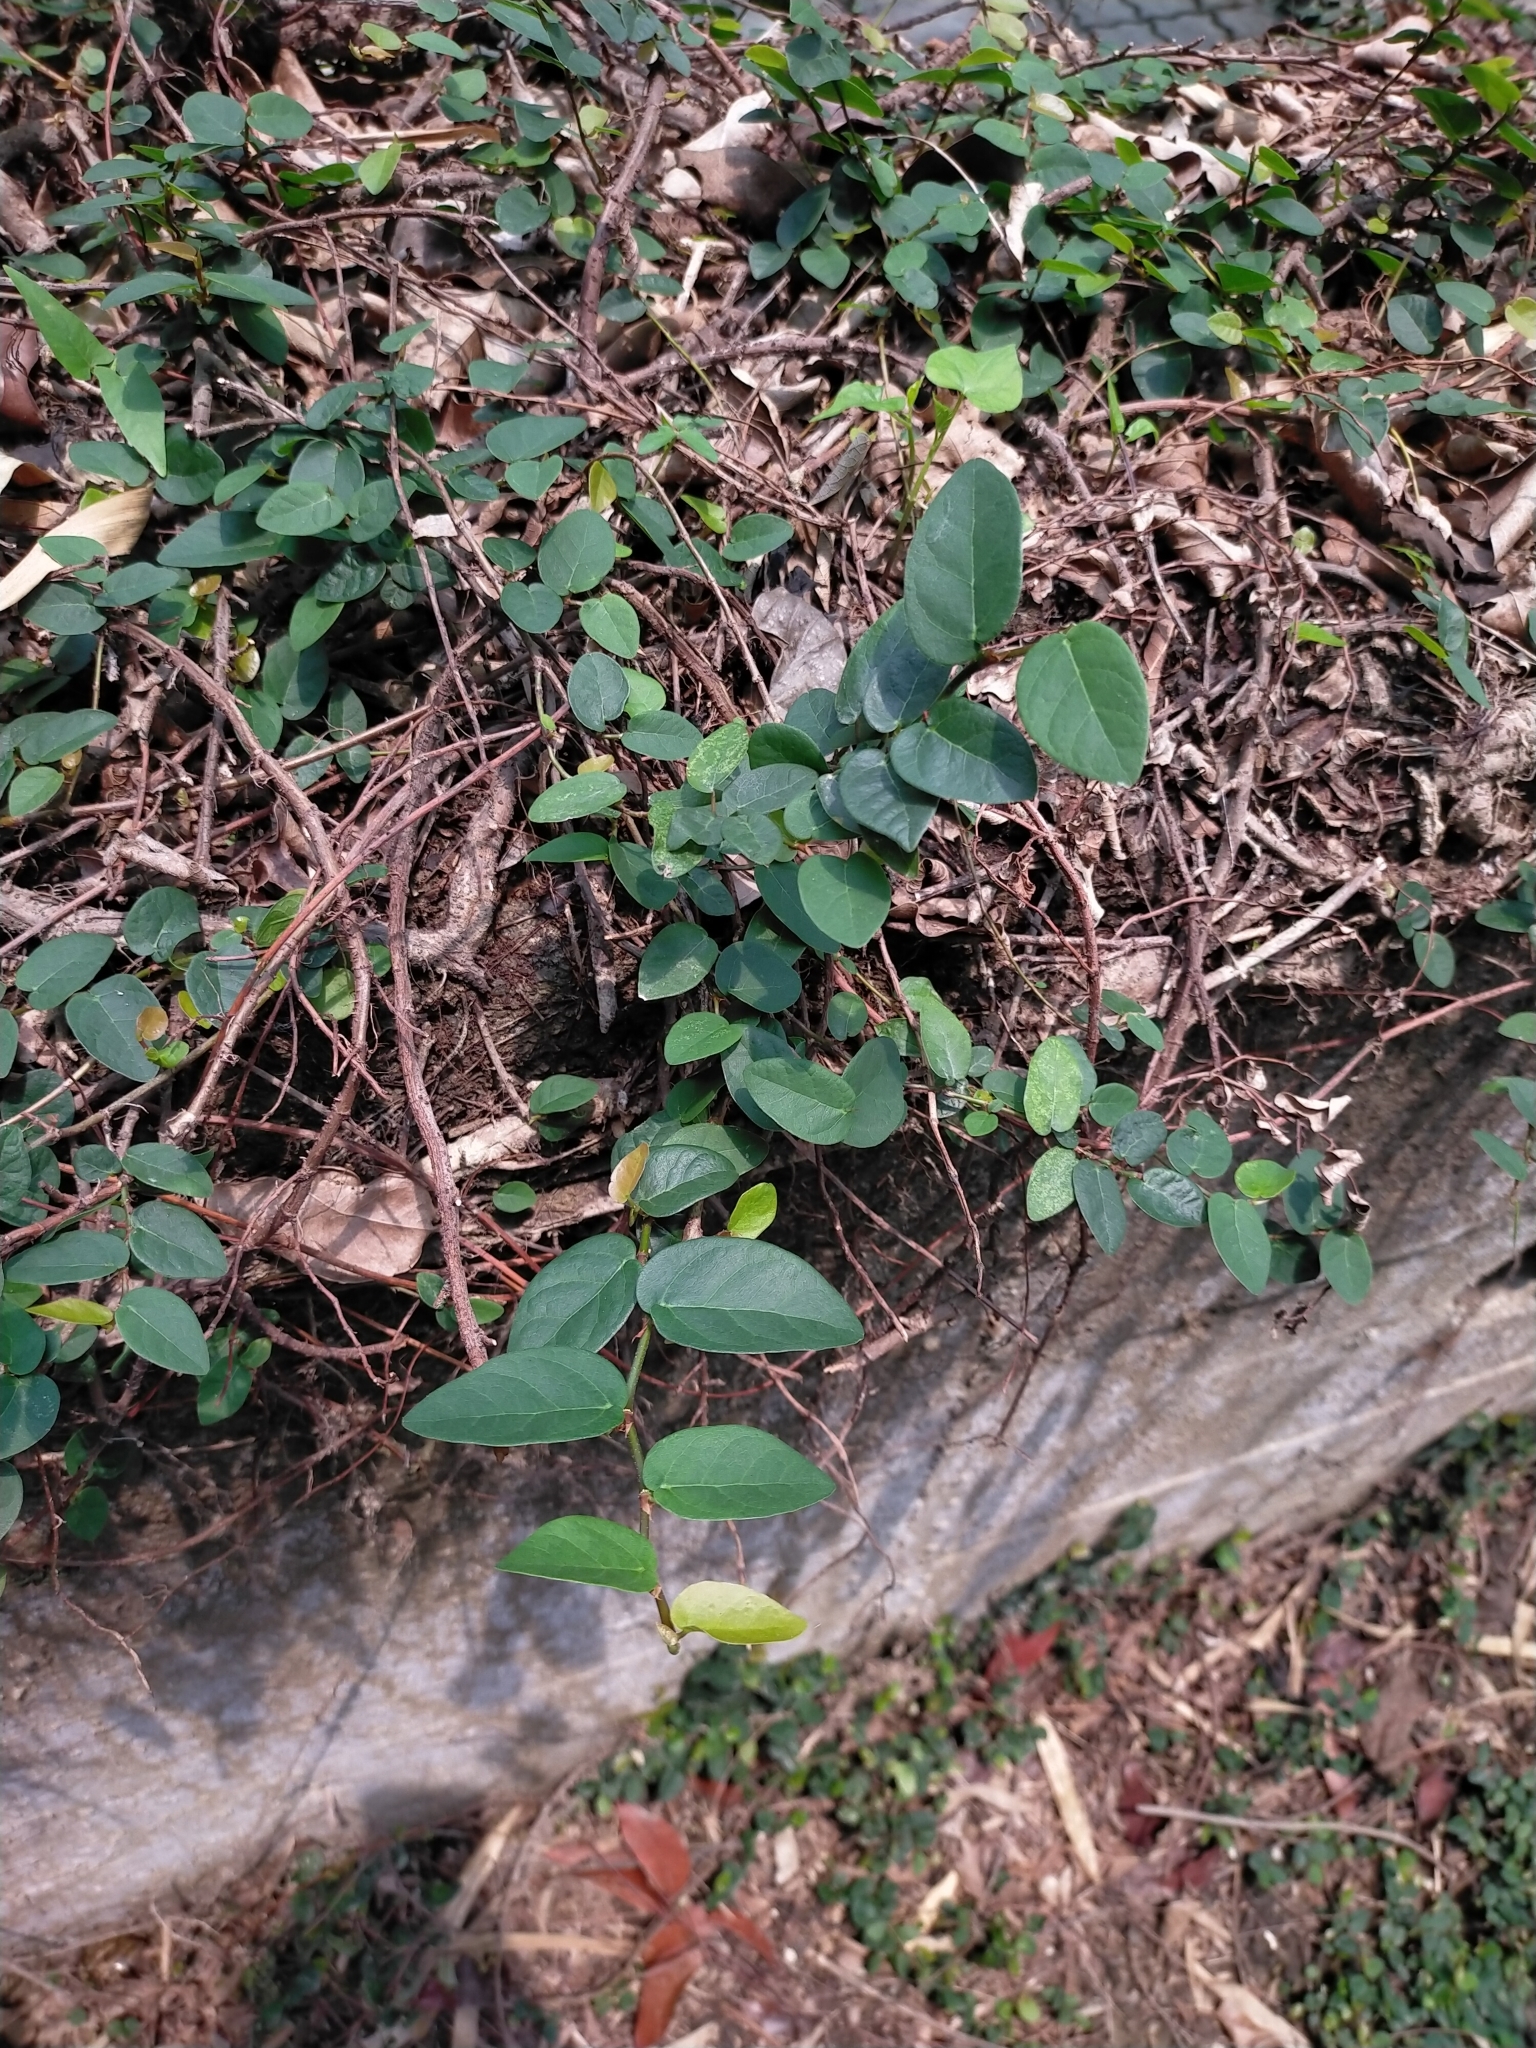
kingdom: Plantae
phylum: Tracheophyta
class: Magnoliopsida
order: Rosales
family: Moraceae
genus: Ficus
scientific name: Ficus pumila
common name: Climbingfig
